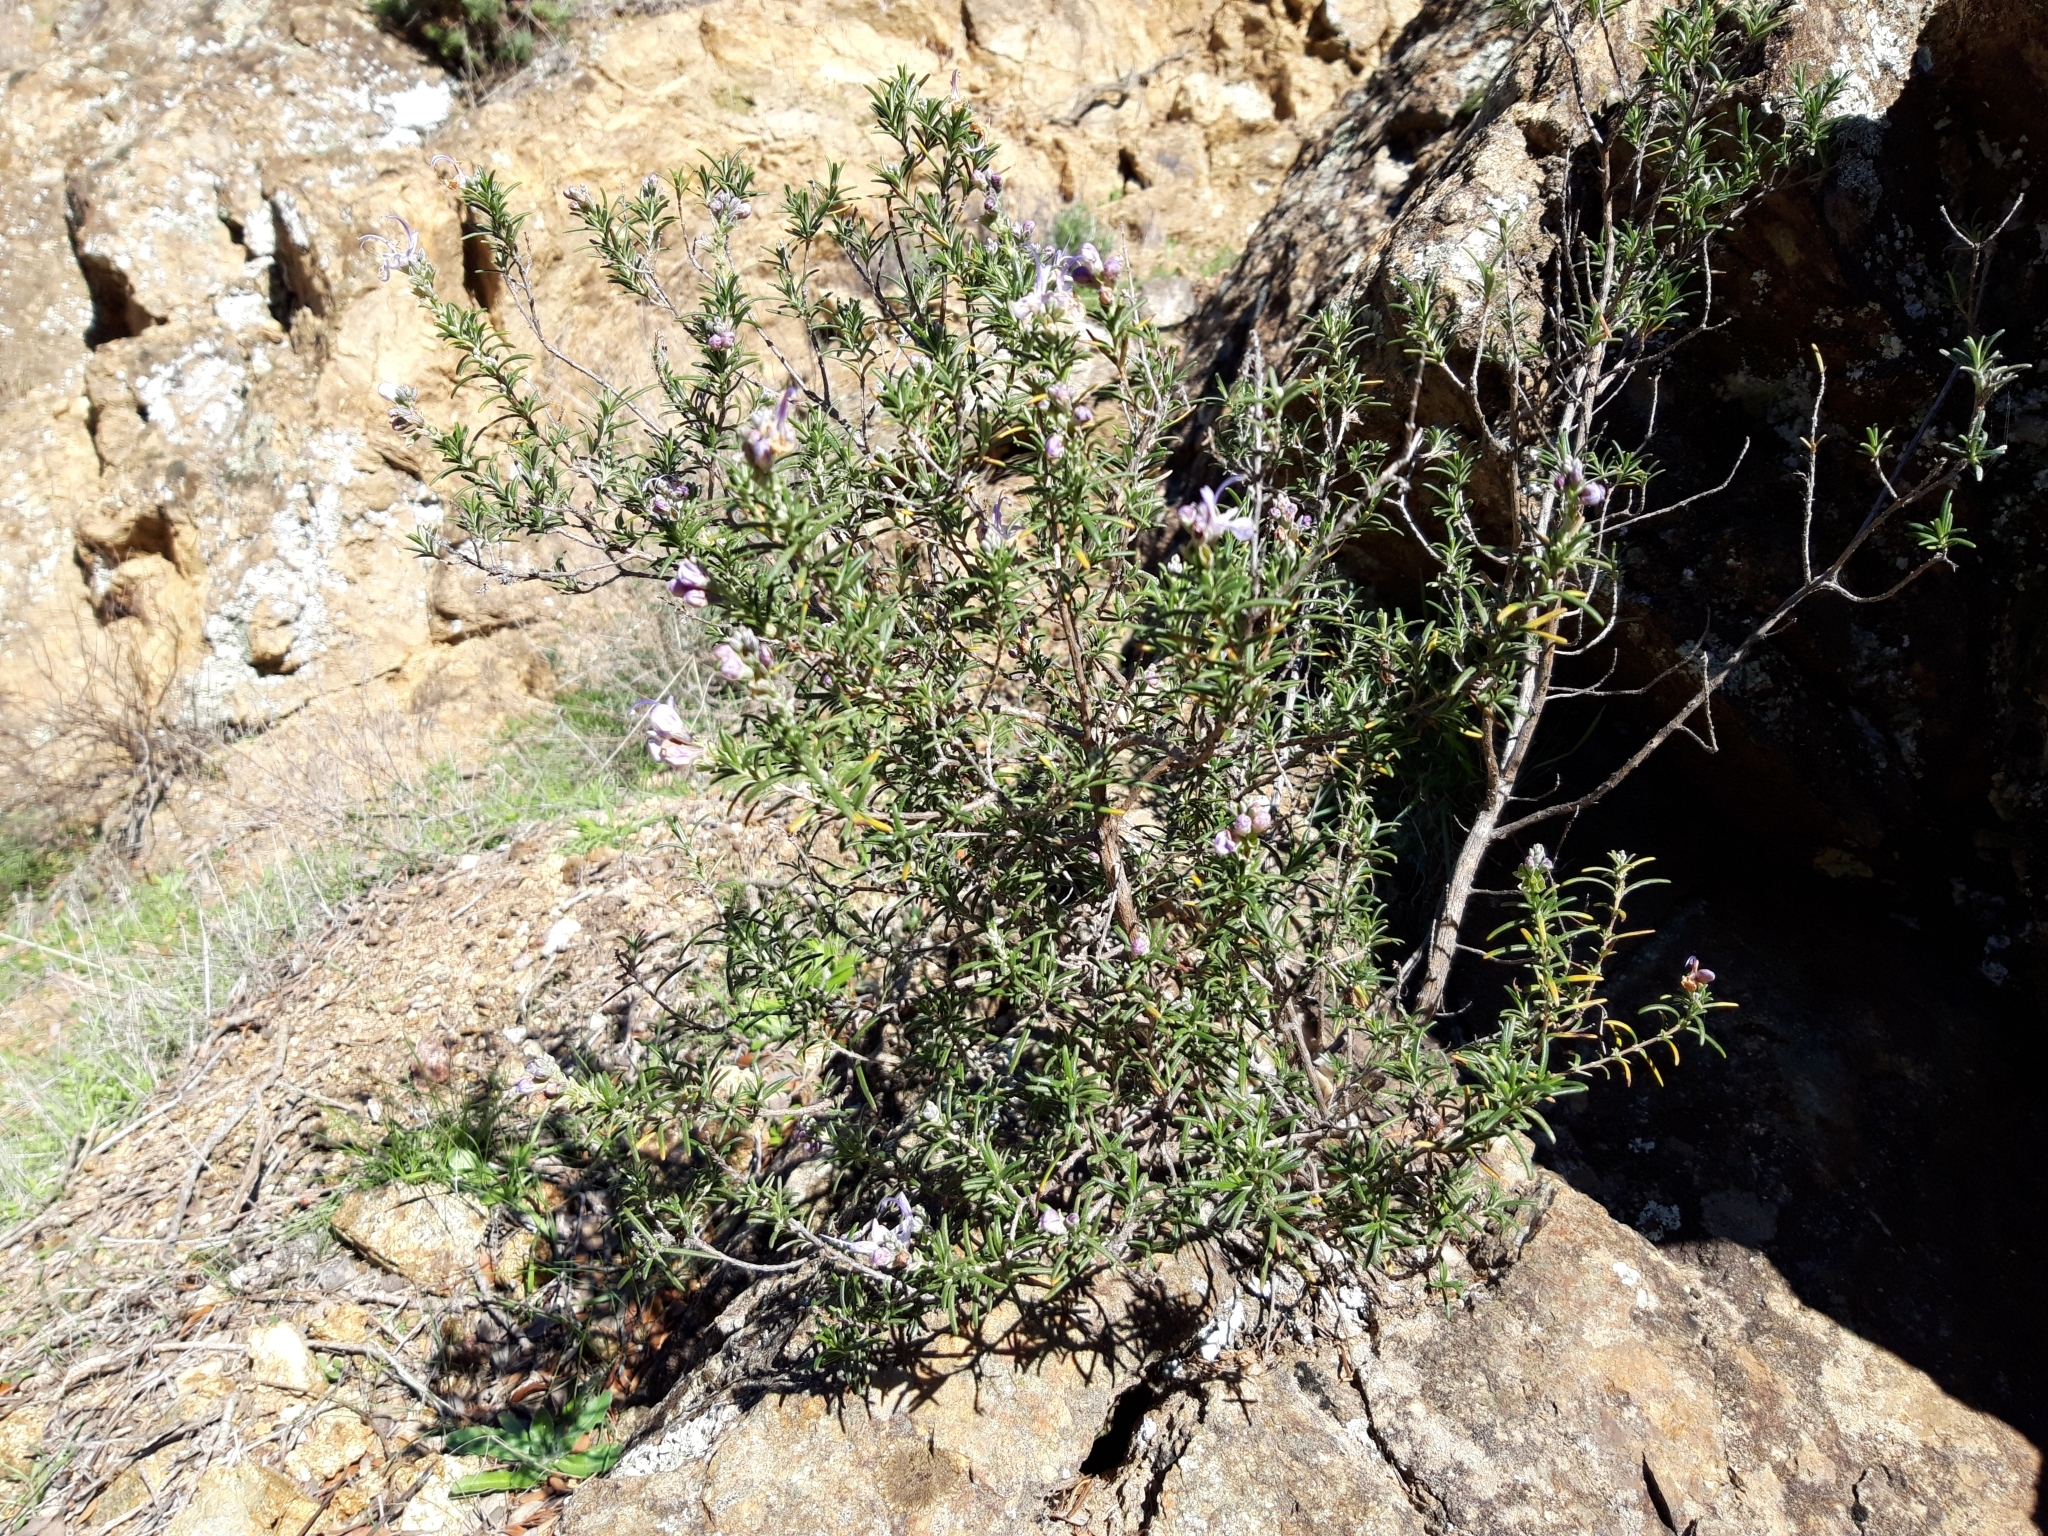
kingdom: Plantae
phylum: Tracheophyta
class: Magnoliopsida
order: Lamiales
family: Lamiaceae
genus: Salvia
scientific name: Salvia rosmarinus
